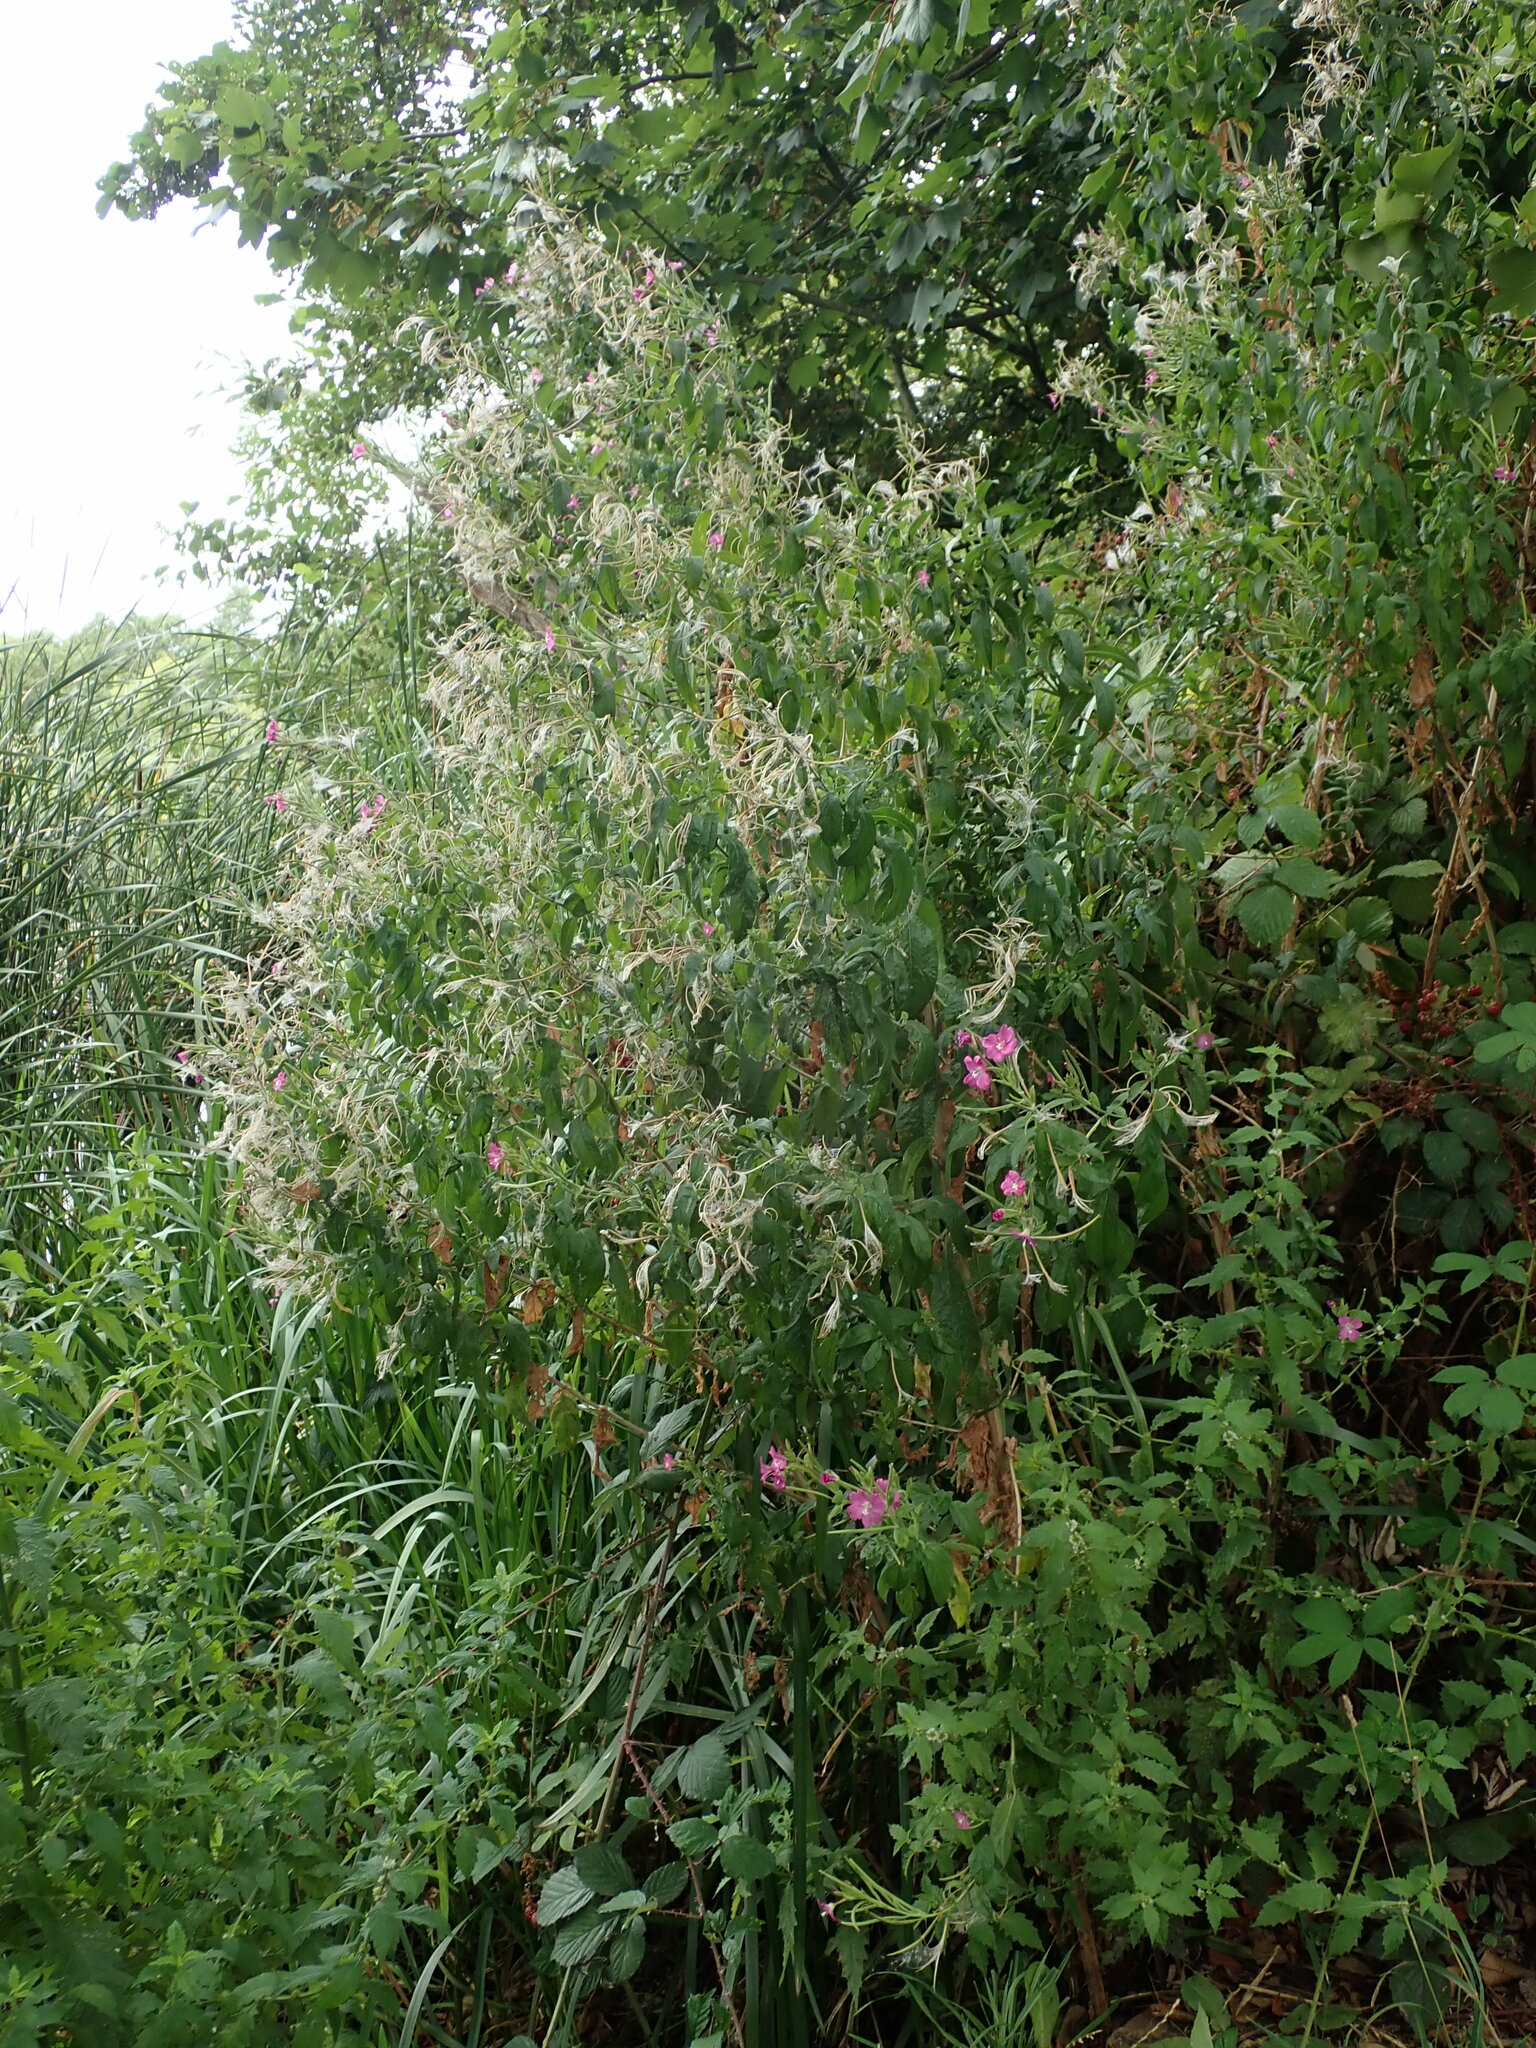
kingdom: Plantae
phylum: Tracheophyta
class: Magnoliopsida
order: Myrtales
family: Onagraceae
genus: Epilobium
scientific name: Epilobium hirsutum
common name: Great willowherb
